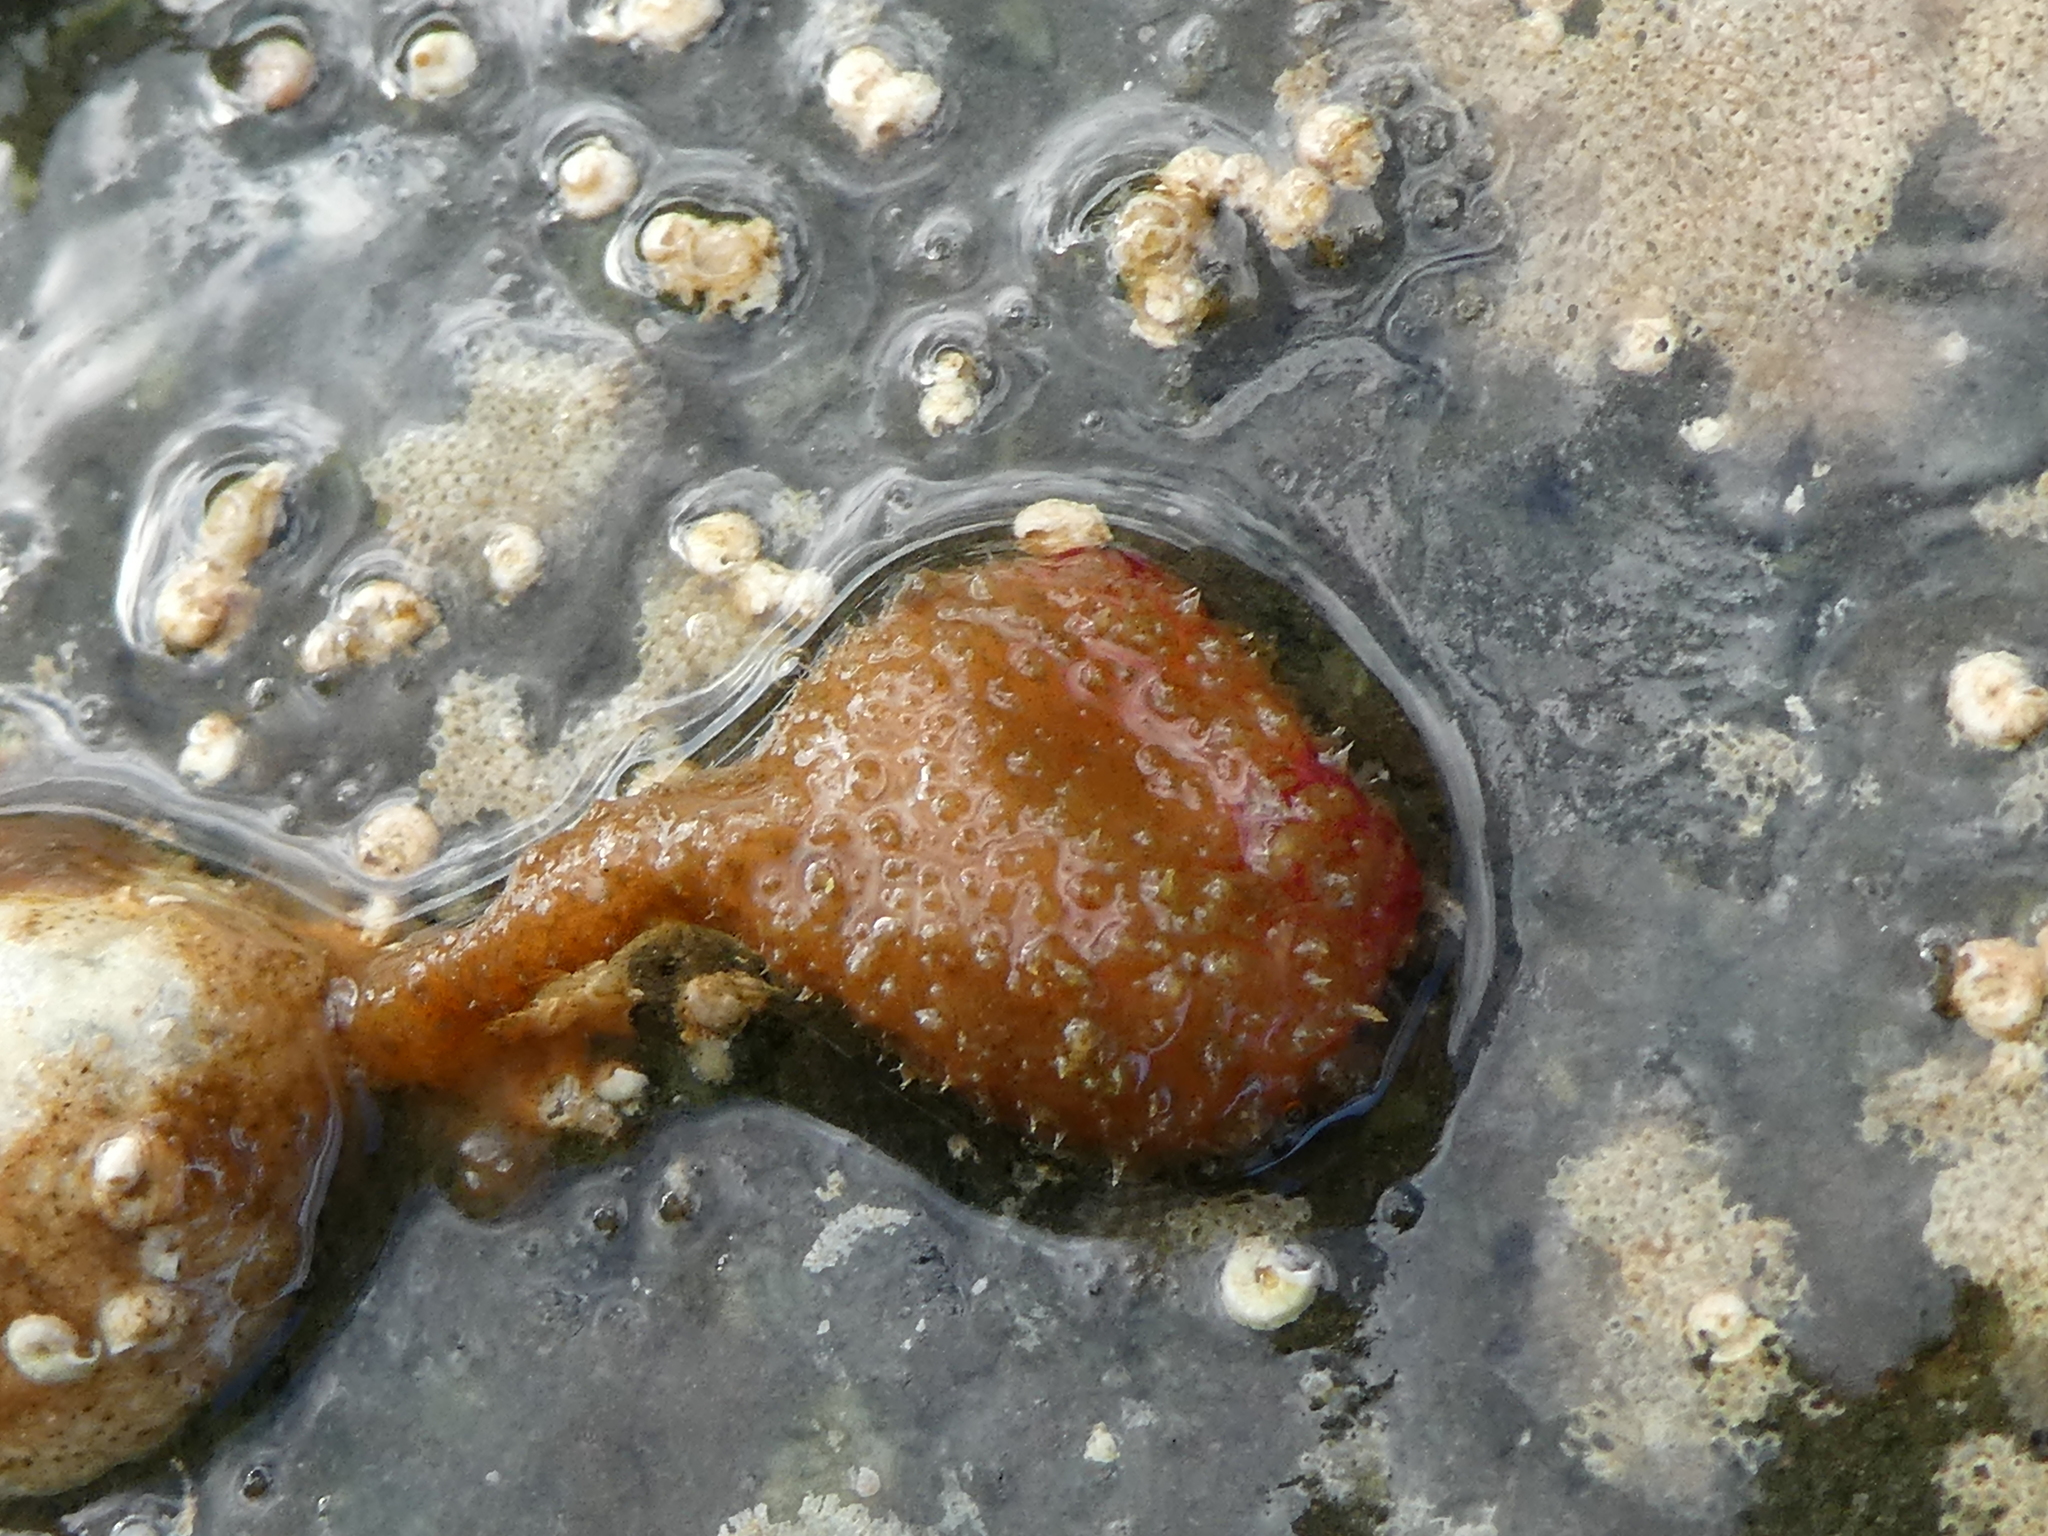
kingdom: Animalia
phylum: Chordata
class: Ascidiacea
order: Stolidobranchia
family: Pyuridae
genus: Boltenia
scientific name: Boltenia villosa
